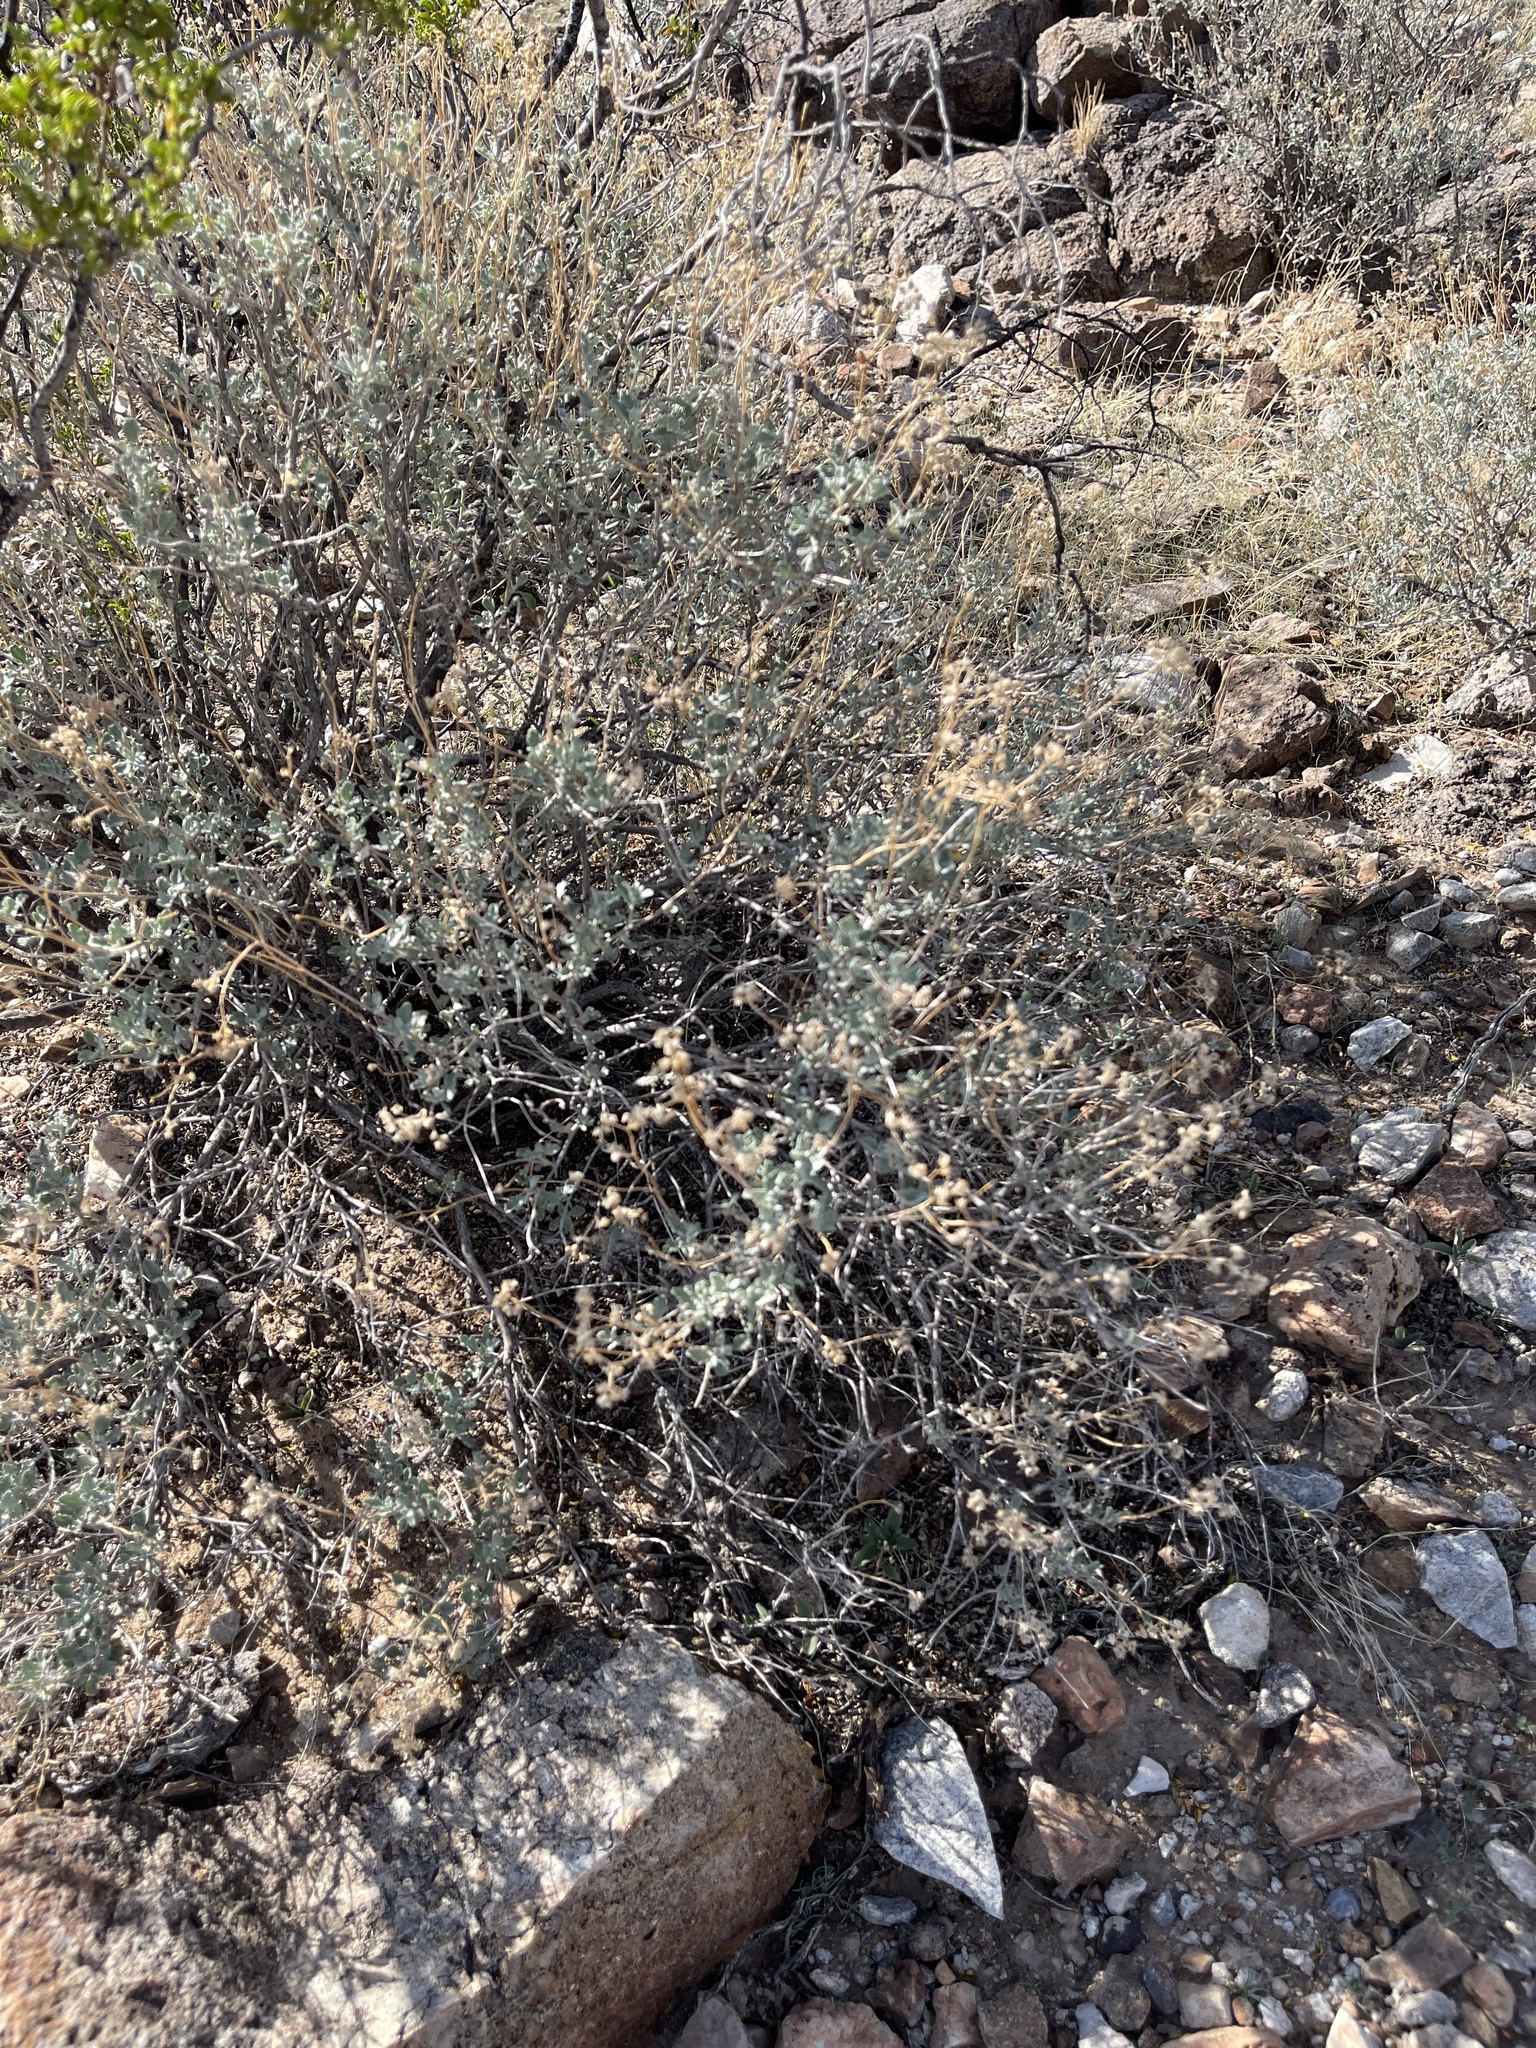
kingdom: Plantae
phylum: Tracheophyta
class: Magnoliopsida
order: Asterales
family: Asteraceae
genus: Parthenium
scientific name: Parthenium incanum
